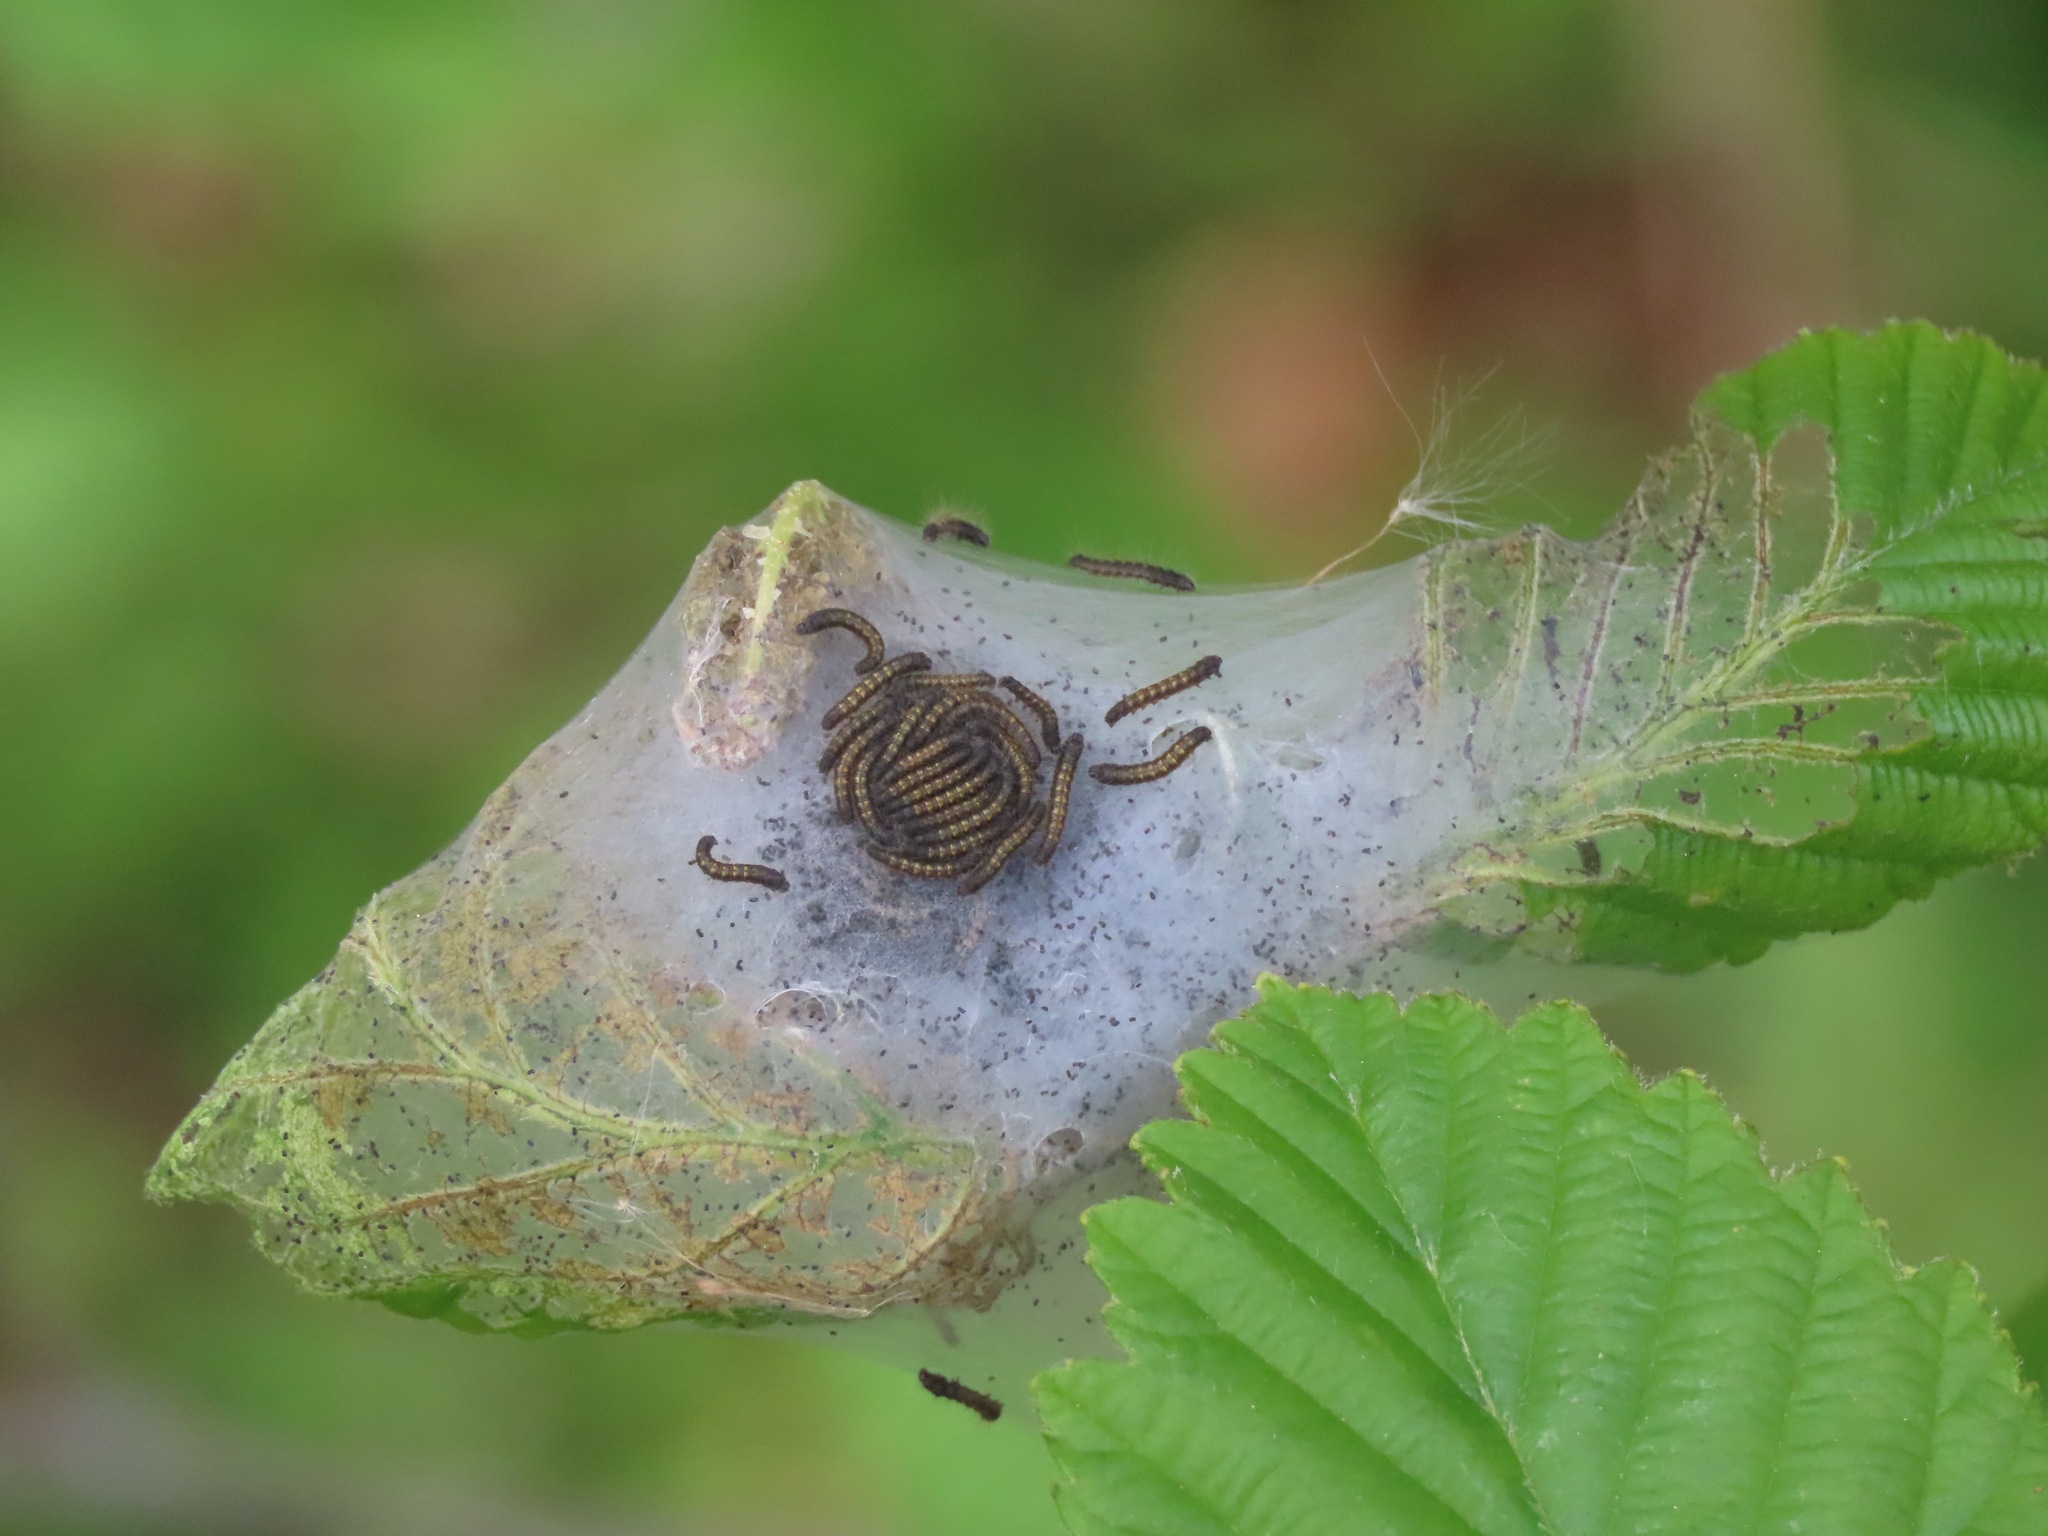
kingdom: Animalia
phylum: Arthropoda
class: Insecta
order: Lepidoptera
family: Lasiocampidae
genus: Malacosoma
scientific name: Malacosoma californica
